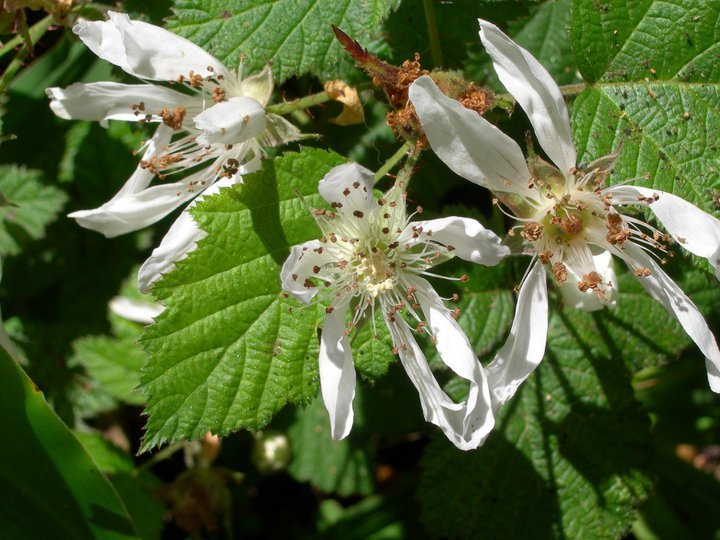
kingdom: Plantae
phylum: Tracheophyta
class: Magnoliopsida
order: Rosales
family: Rosaceae
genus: Rubus
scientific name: Rubus ursinus
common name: Pacific blackberry
